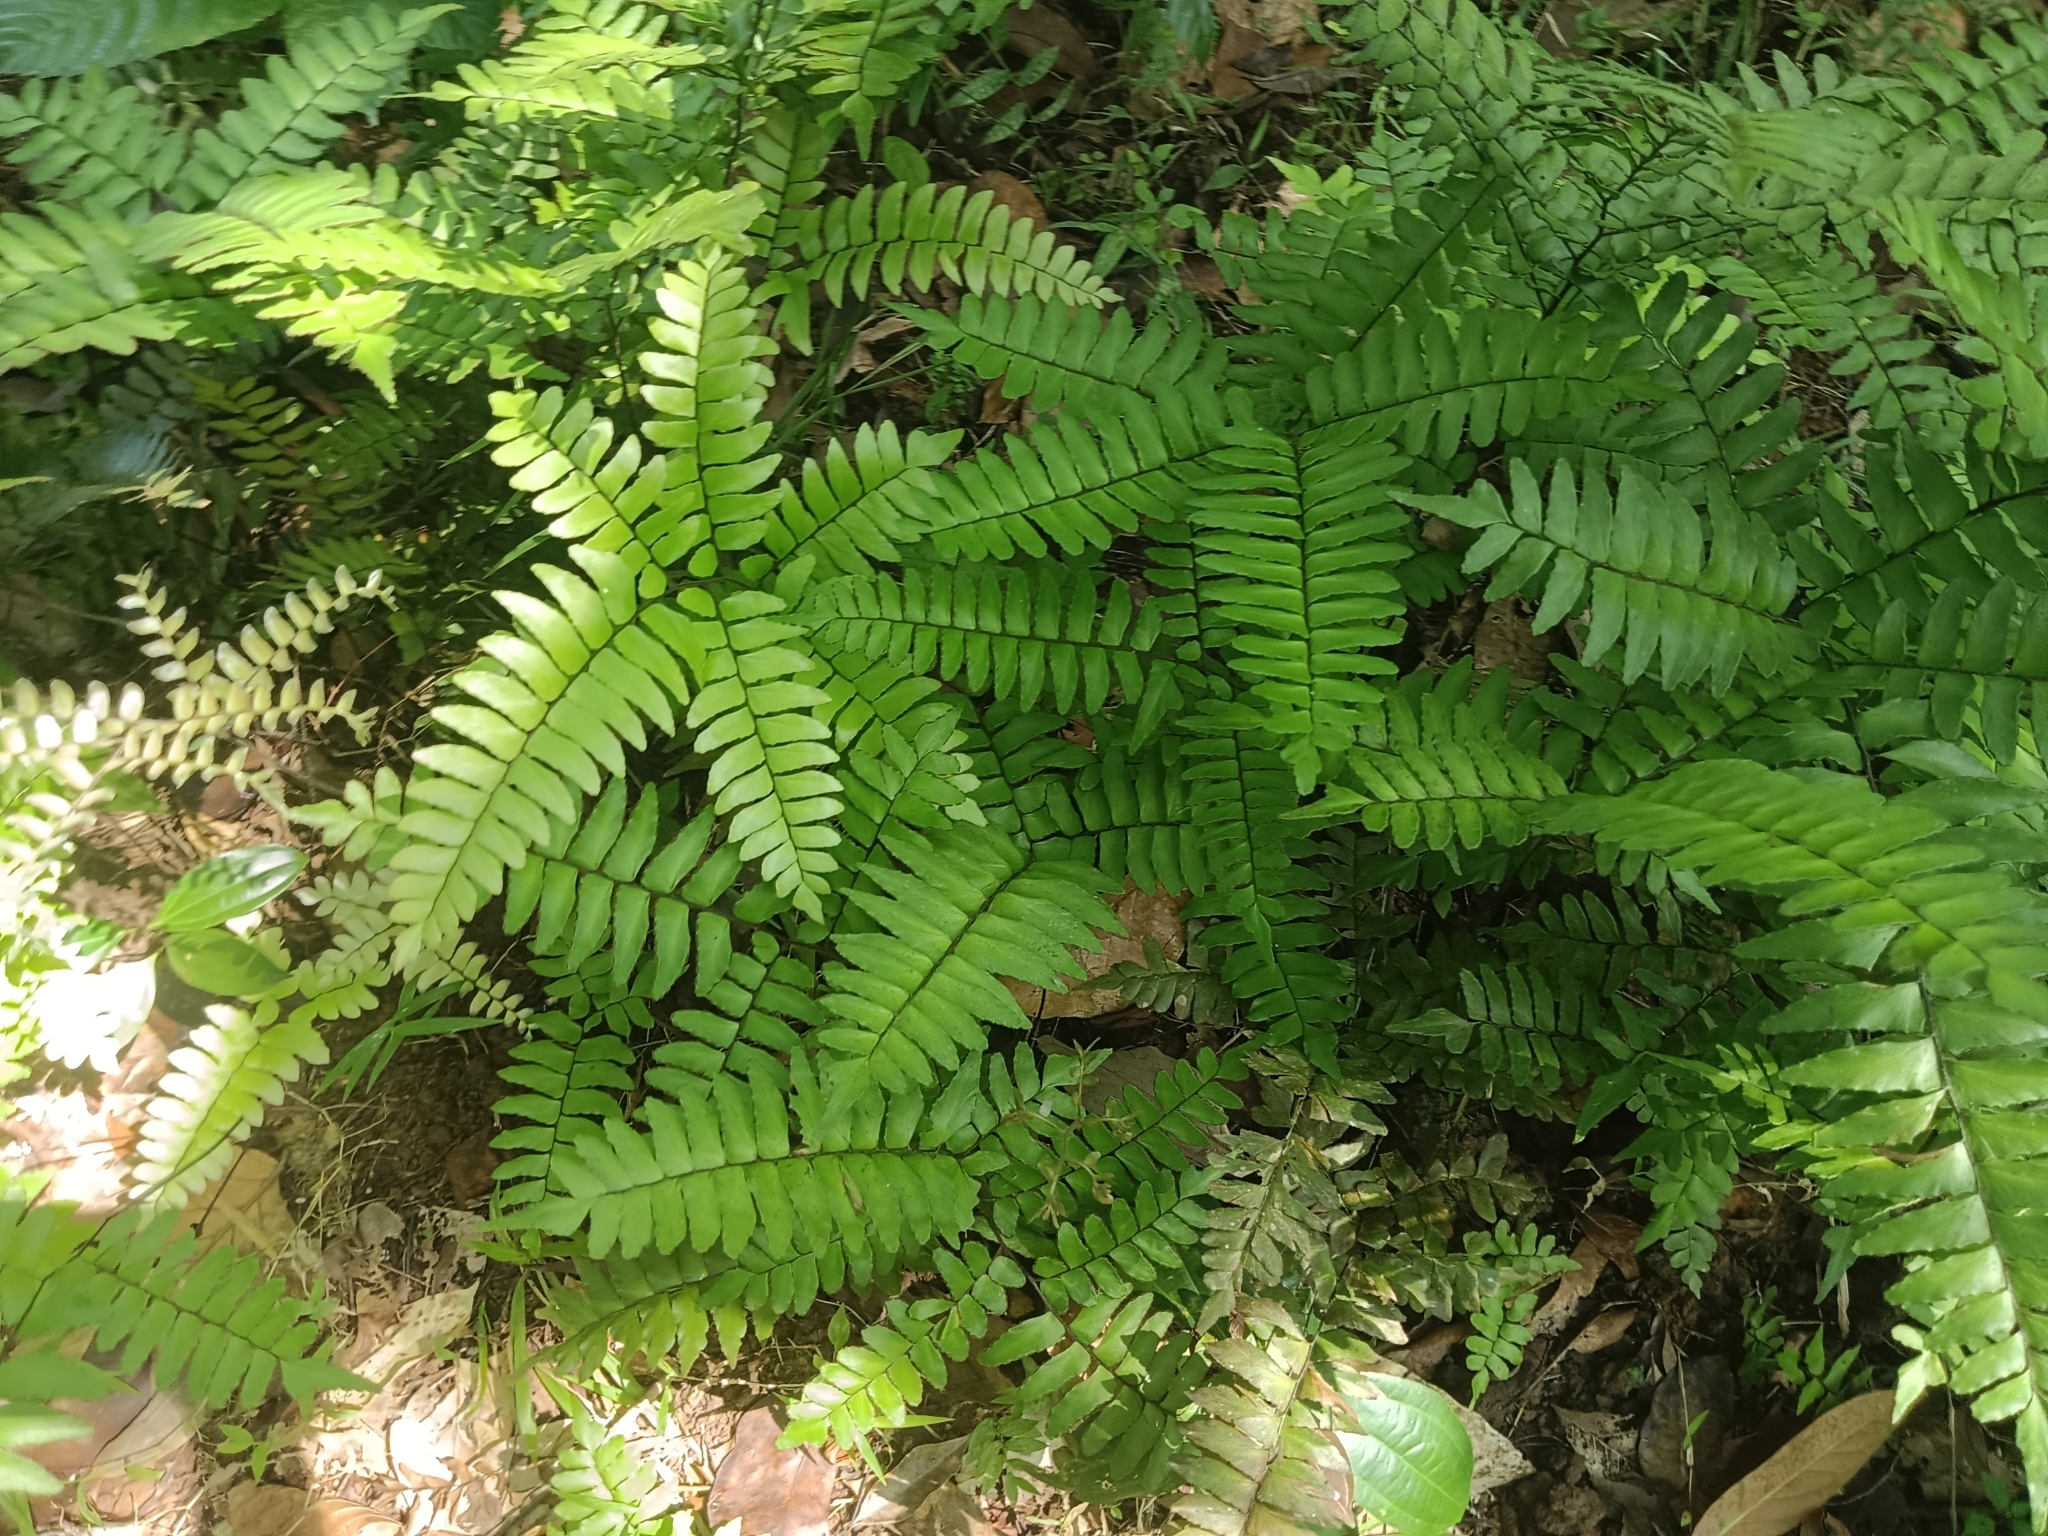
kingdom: Plantae
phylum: Tracheophyta
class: Polypodiopsida
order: Polypodiales
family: Pteridaceae
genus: Adiantum
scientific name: Adiantum latifolium
